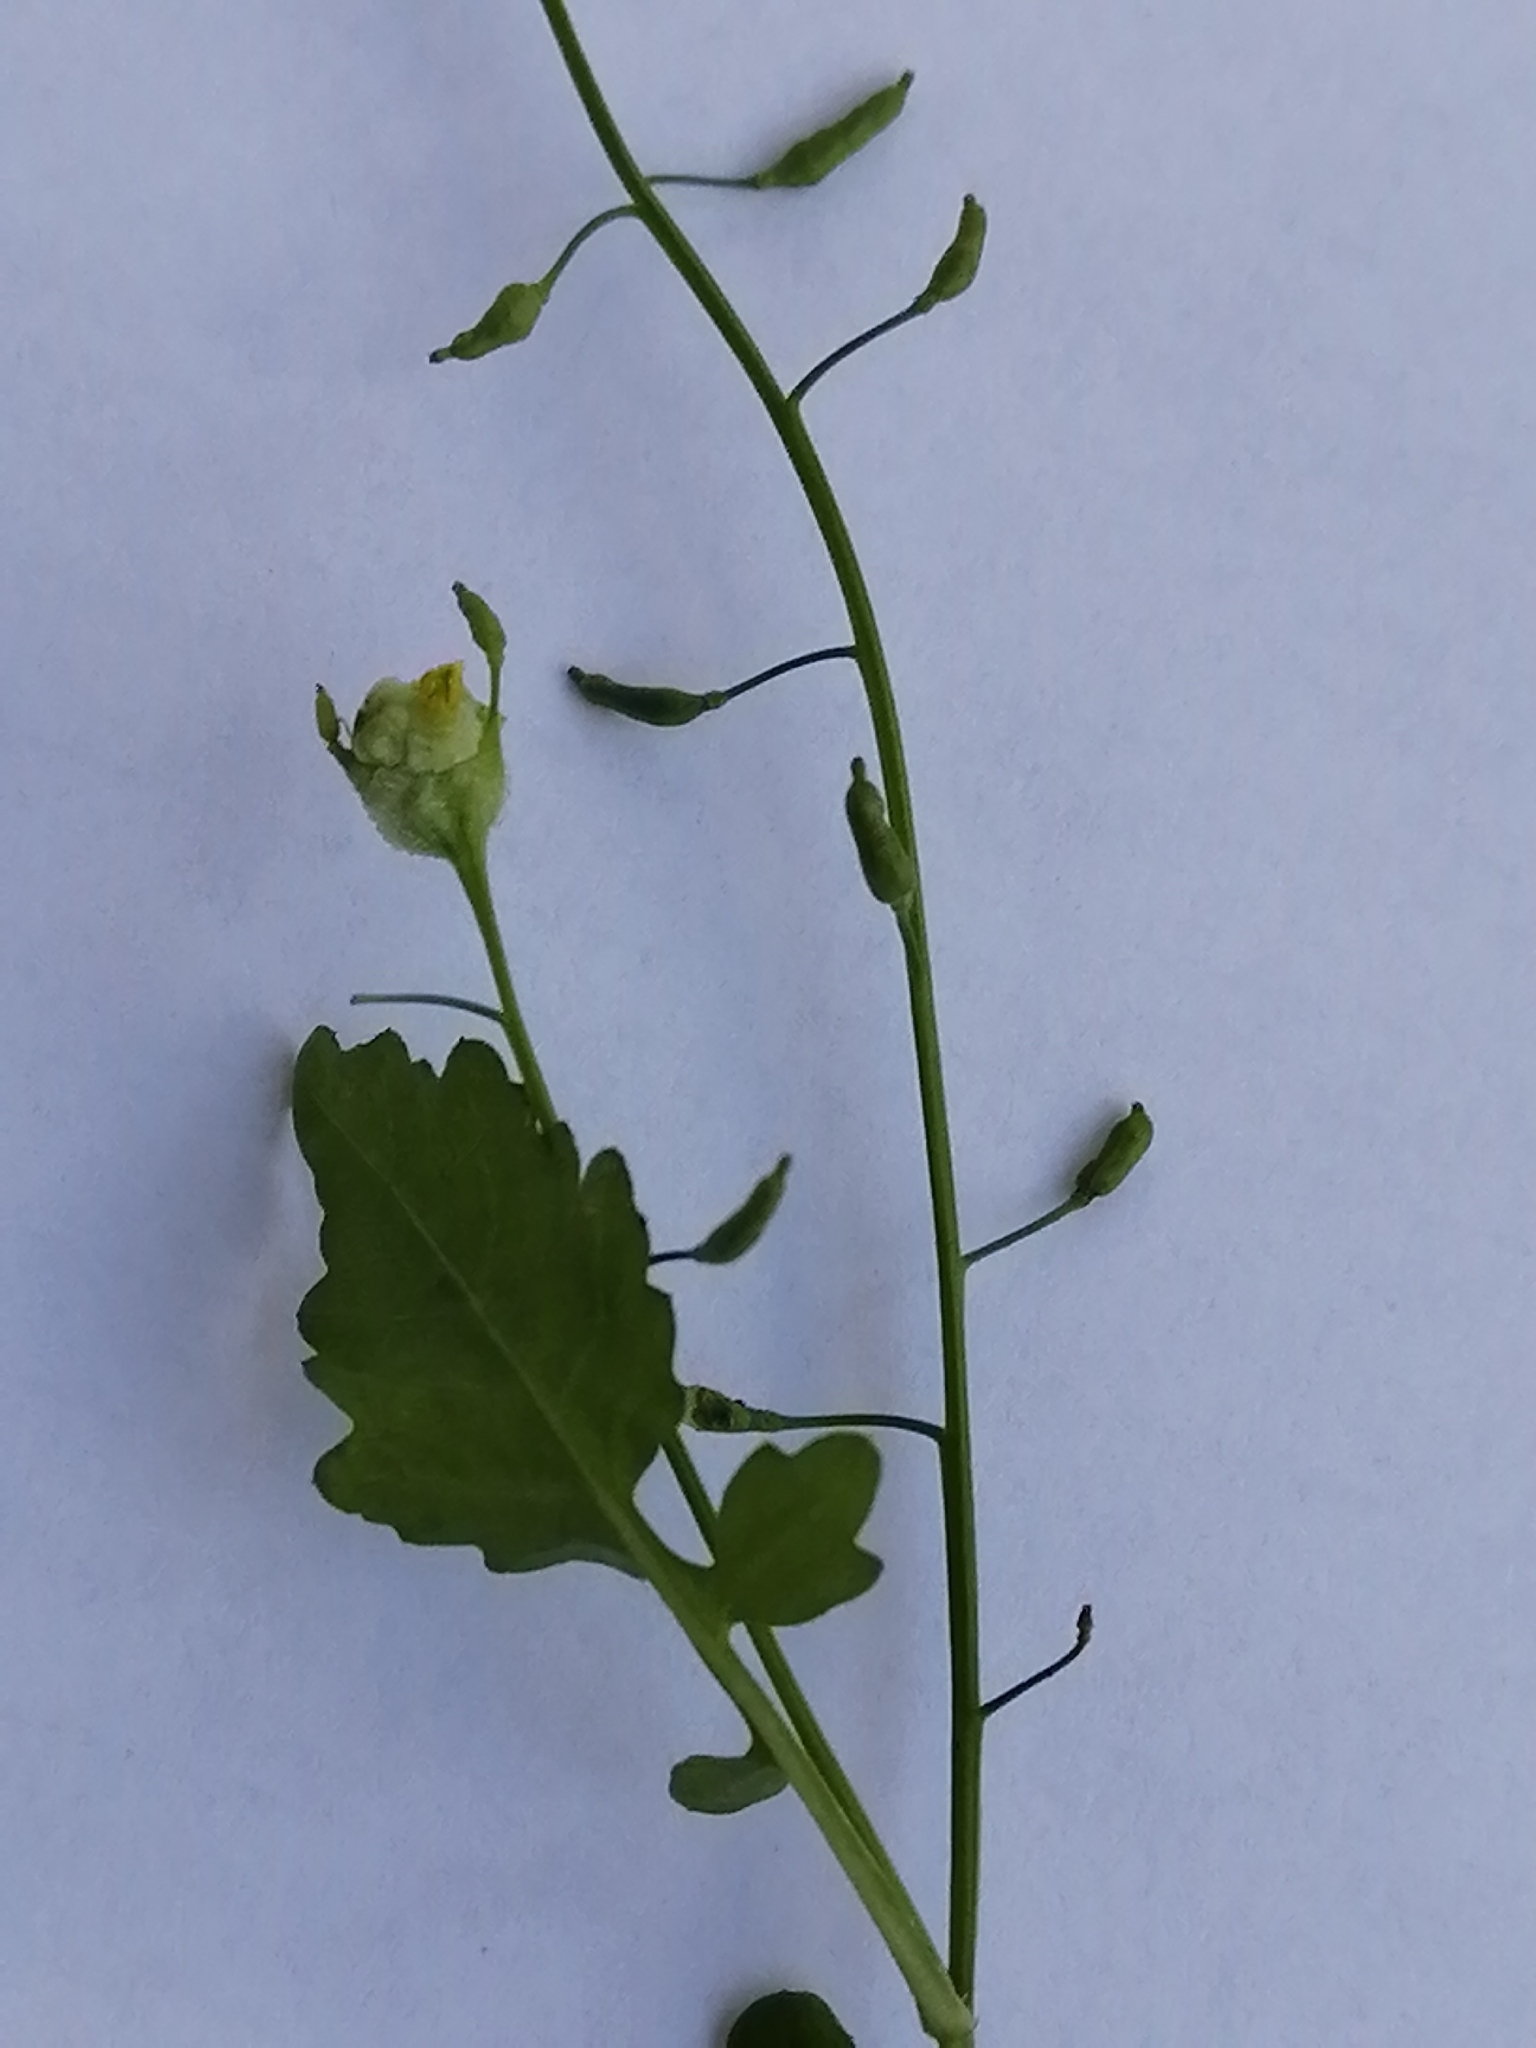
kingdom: Plantae
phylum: Tracheophyta
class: Magnoliopsida
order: Brassicales
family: Brassicaceae
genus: Rorippa
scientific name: Rorippa palustris
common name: Marsh yellow-cress
